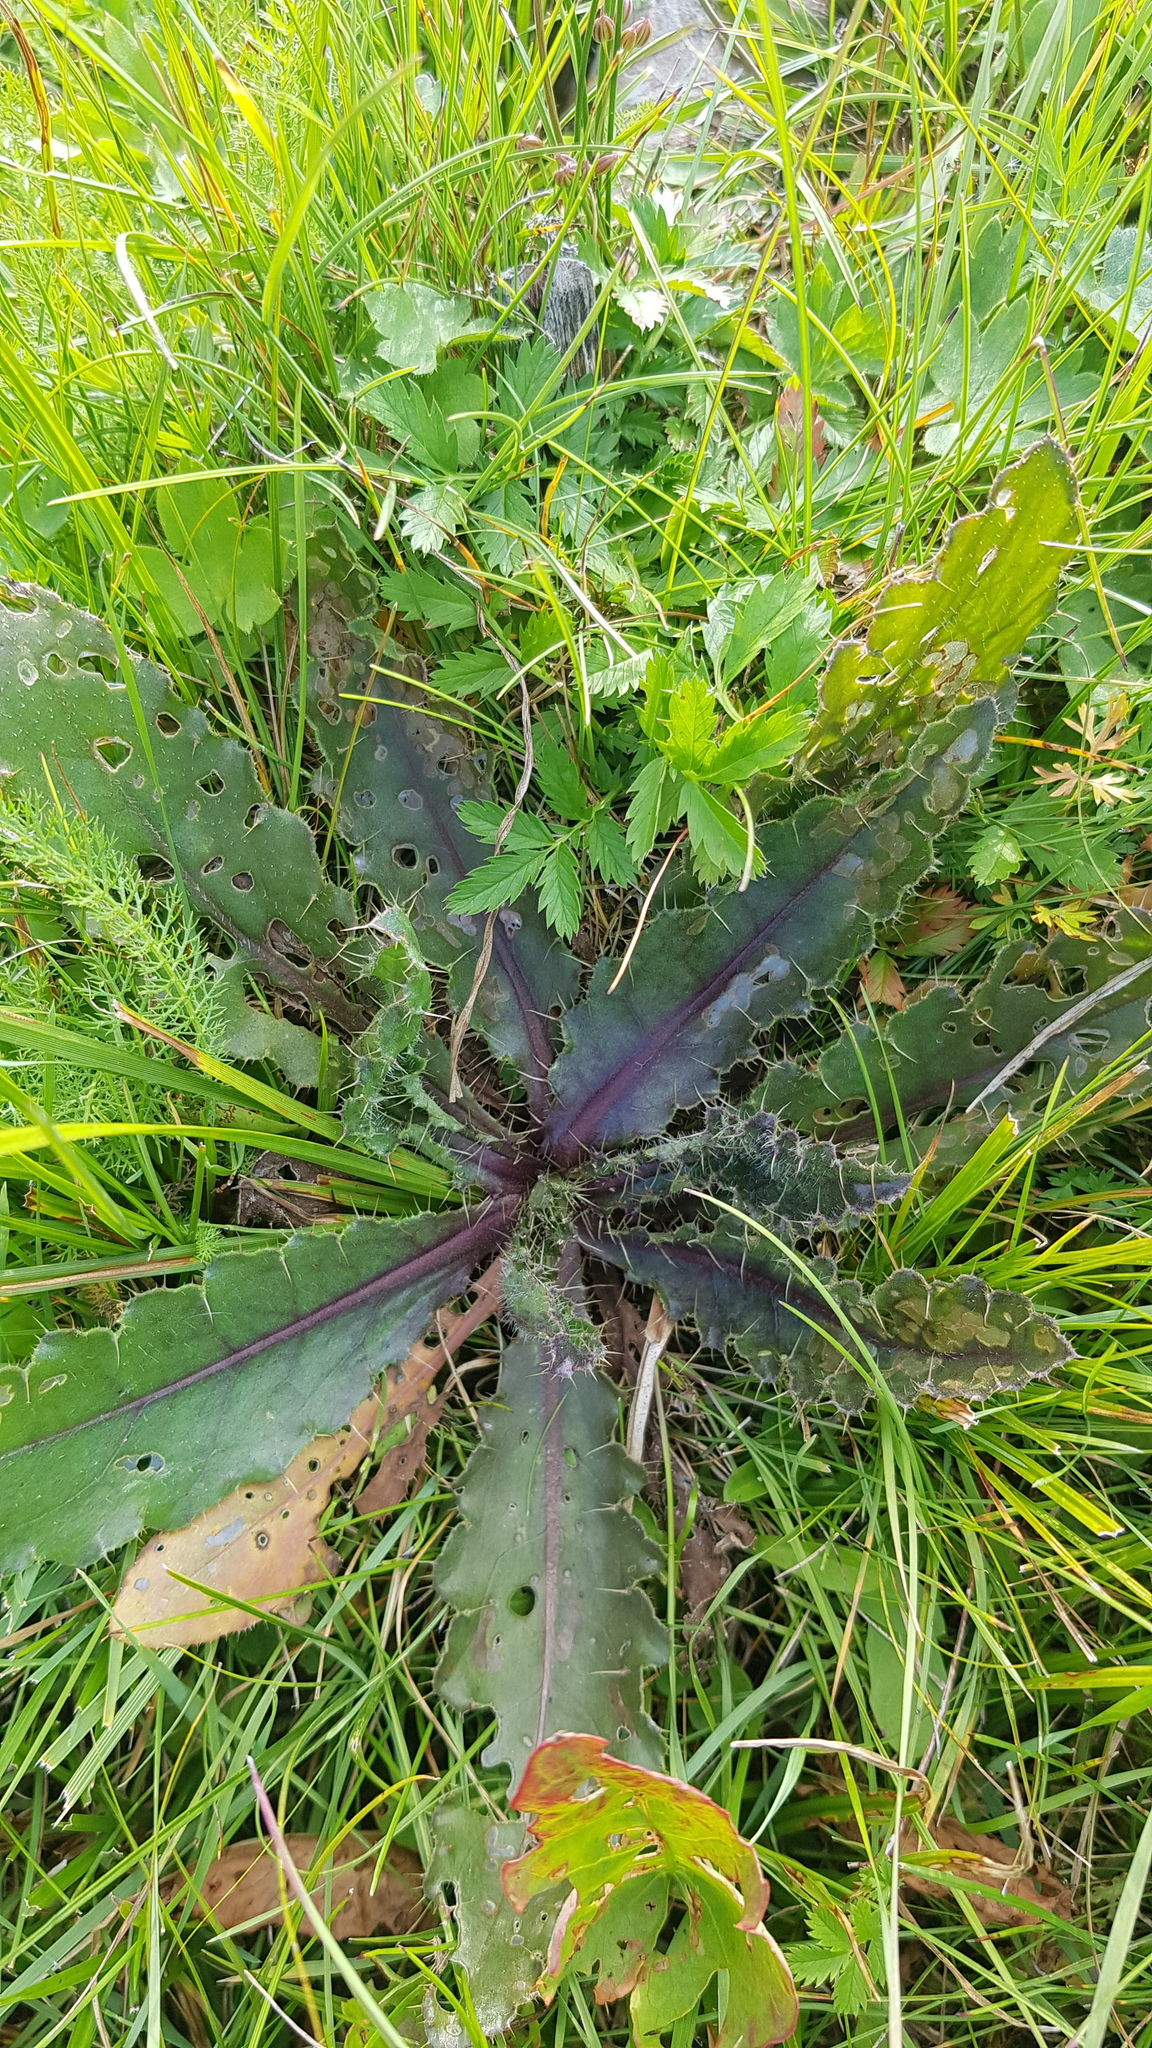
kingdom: Plantae
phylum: Tracheophyta
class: Magnoliopsida
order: Asterales
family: Asteraceae
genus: Cirsium
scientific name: Cirsium esculentum
